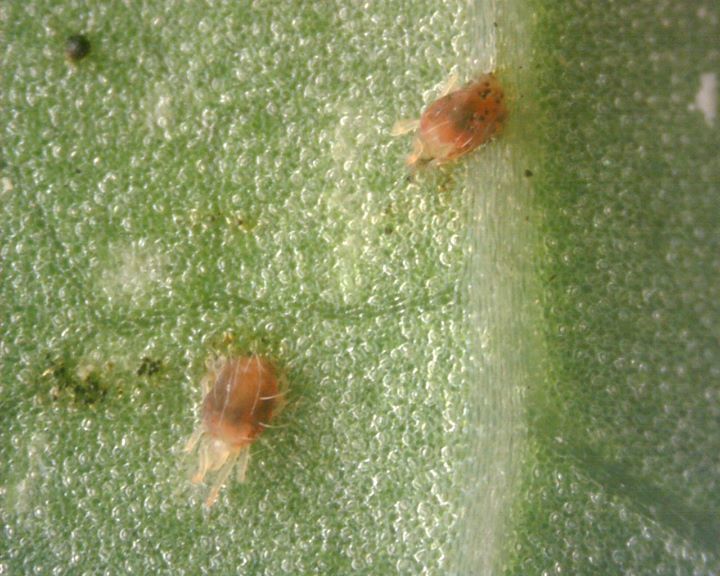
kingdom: Animalia
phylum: Arthropoda
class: Arachnida
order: Trombidiformes
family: Tetranychidae
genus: Tetranychus
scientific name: Tetranychus urticae
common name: Carmine spider mite
